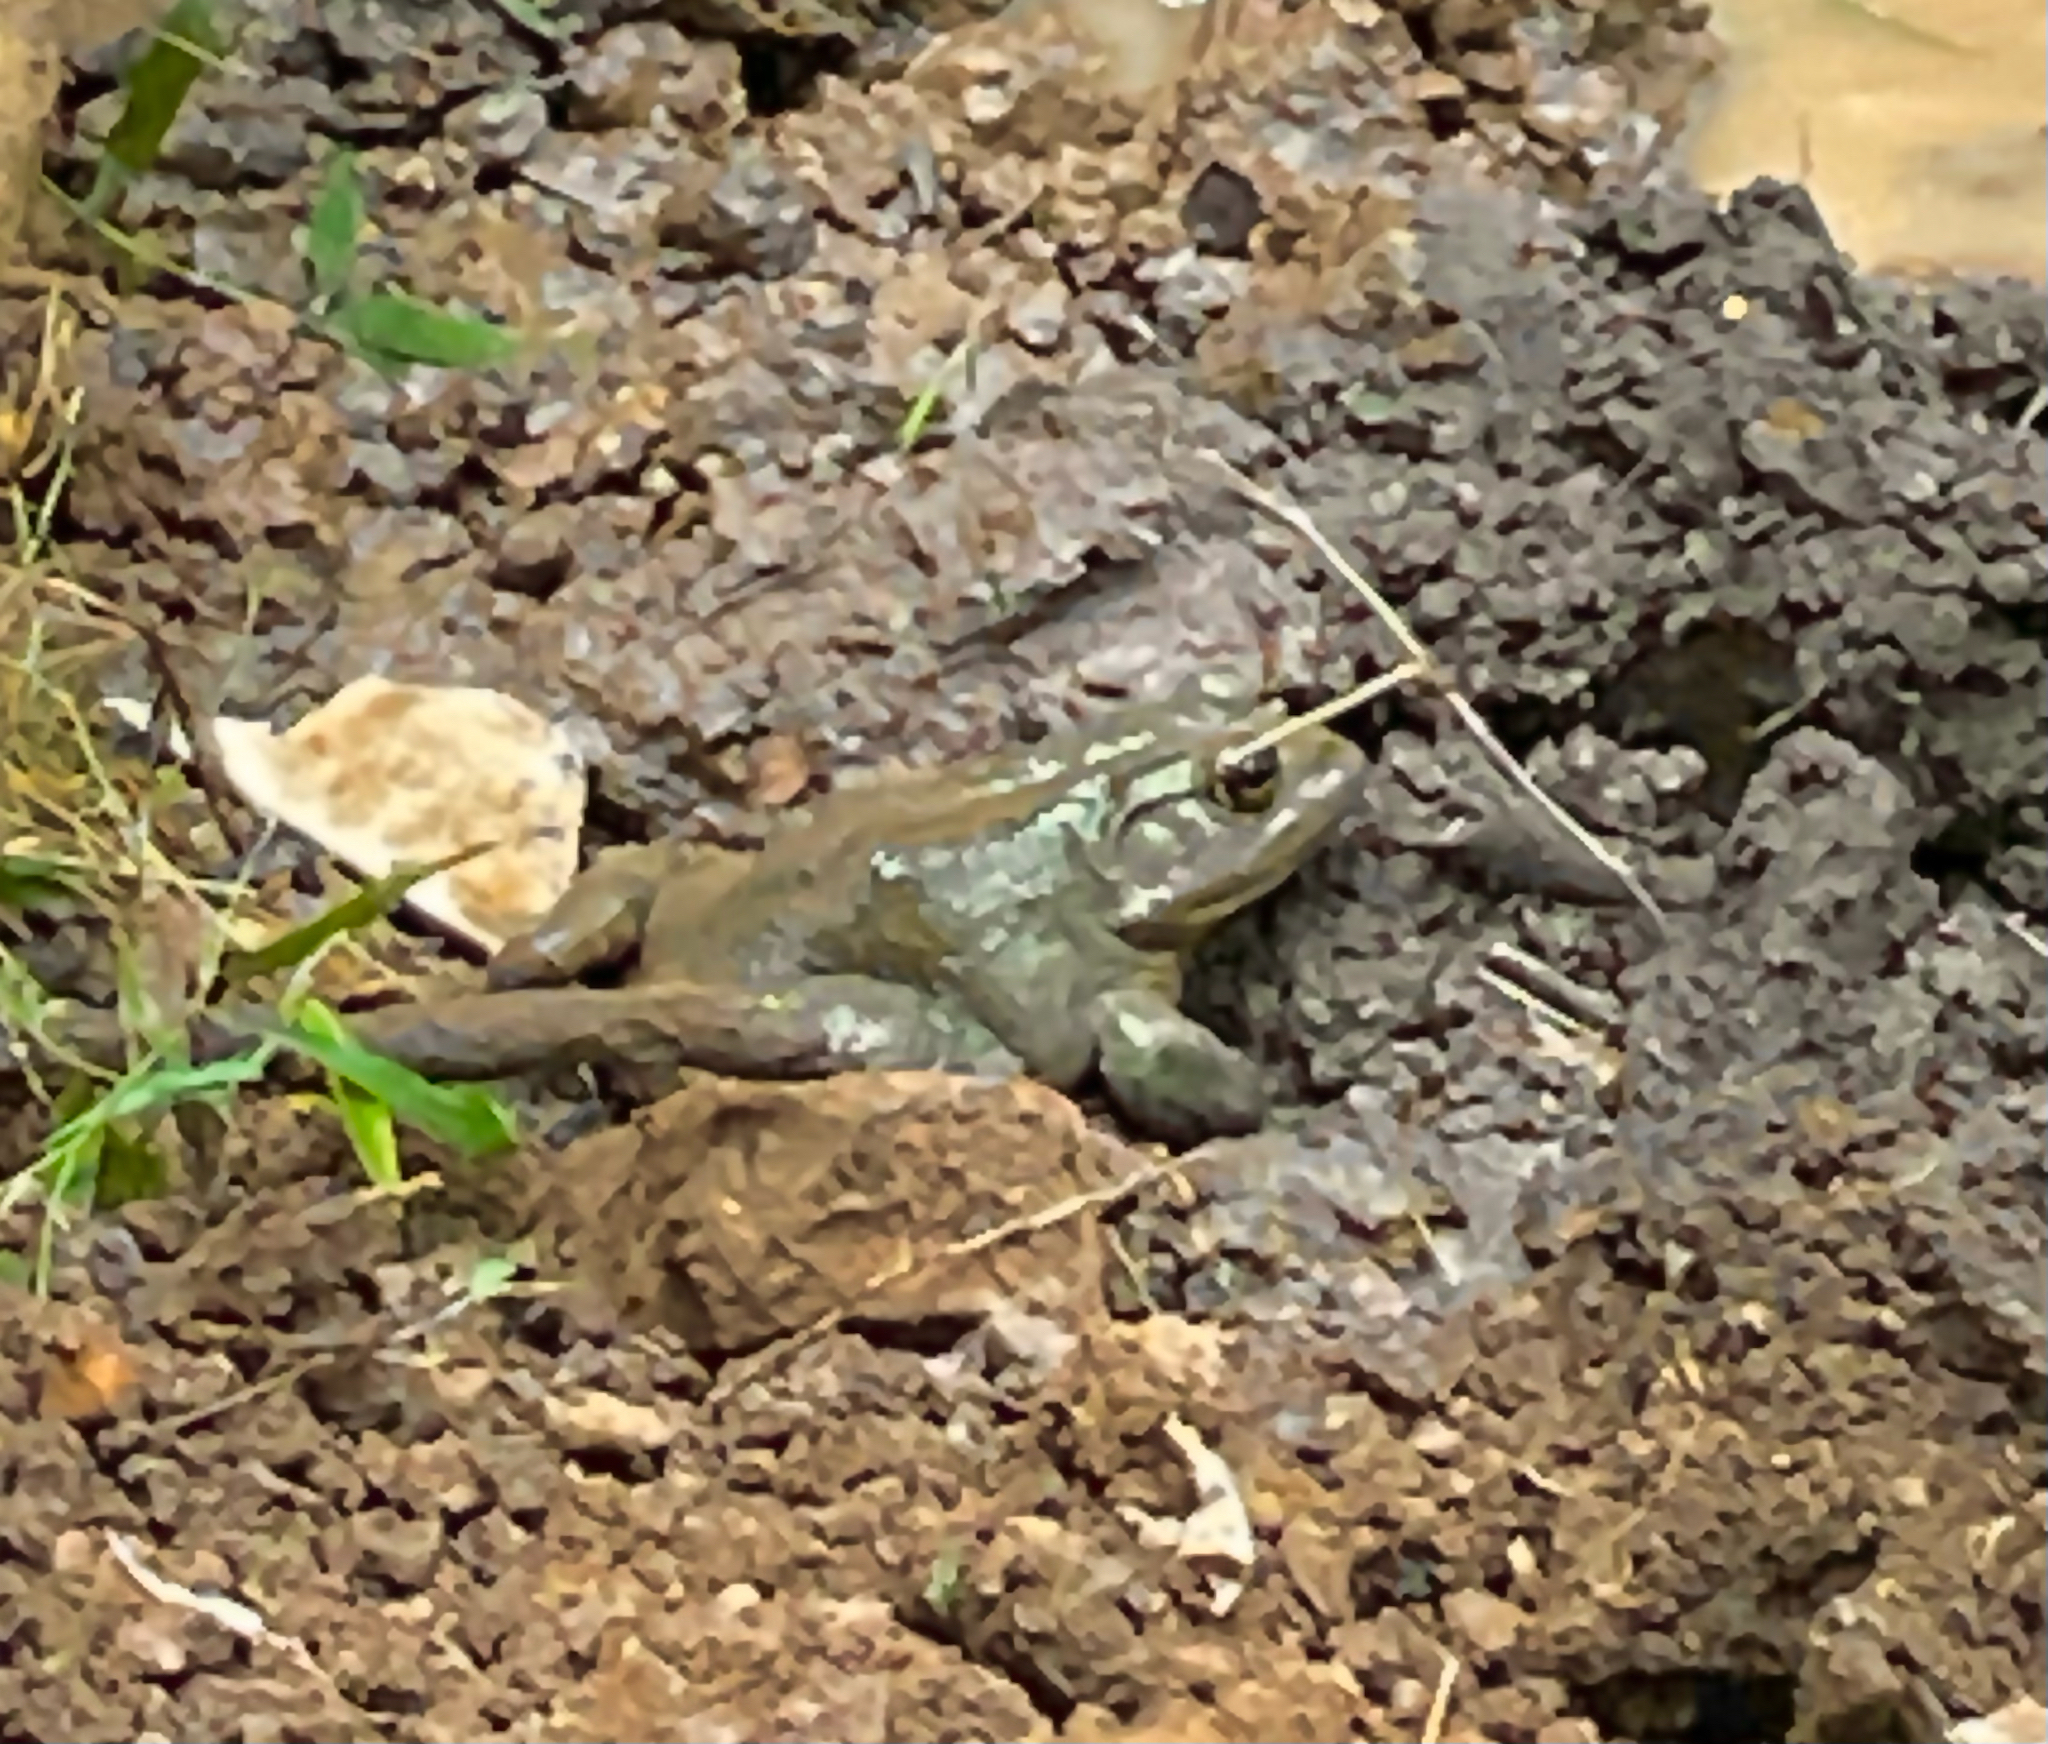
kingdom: Animalia
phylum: Chordata
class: Amphibia
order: Anura
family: Ranidae
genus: Lithobates
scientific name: Lithobates catesbeianus
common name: American bullfrog
